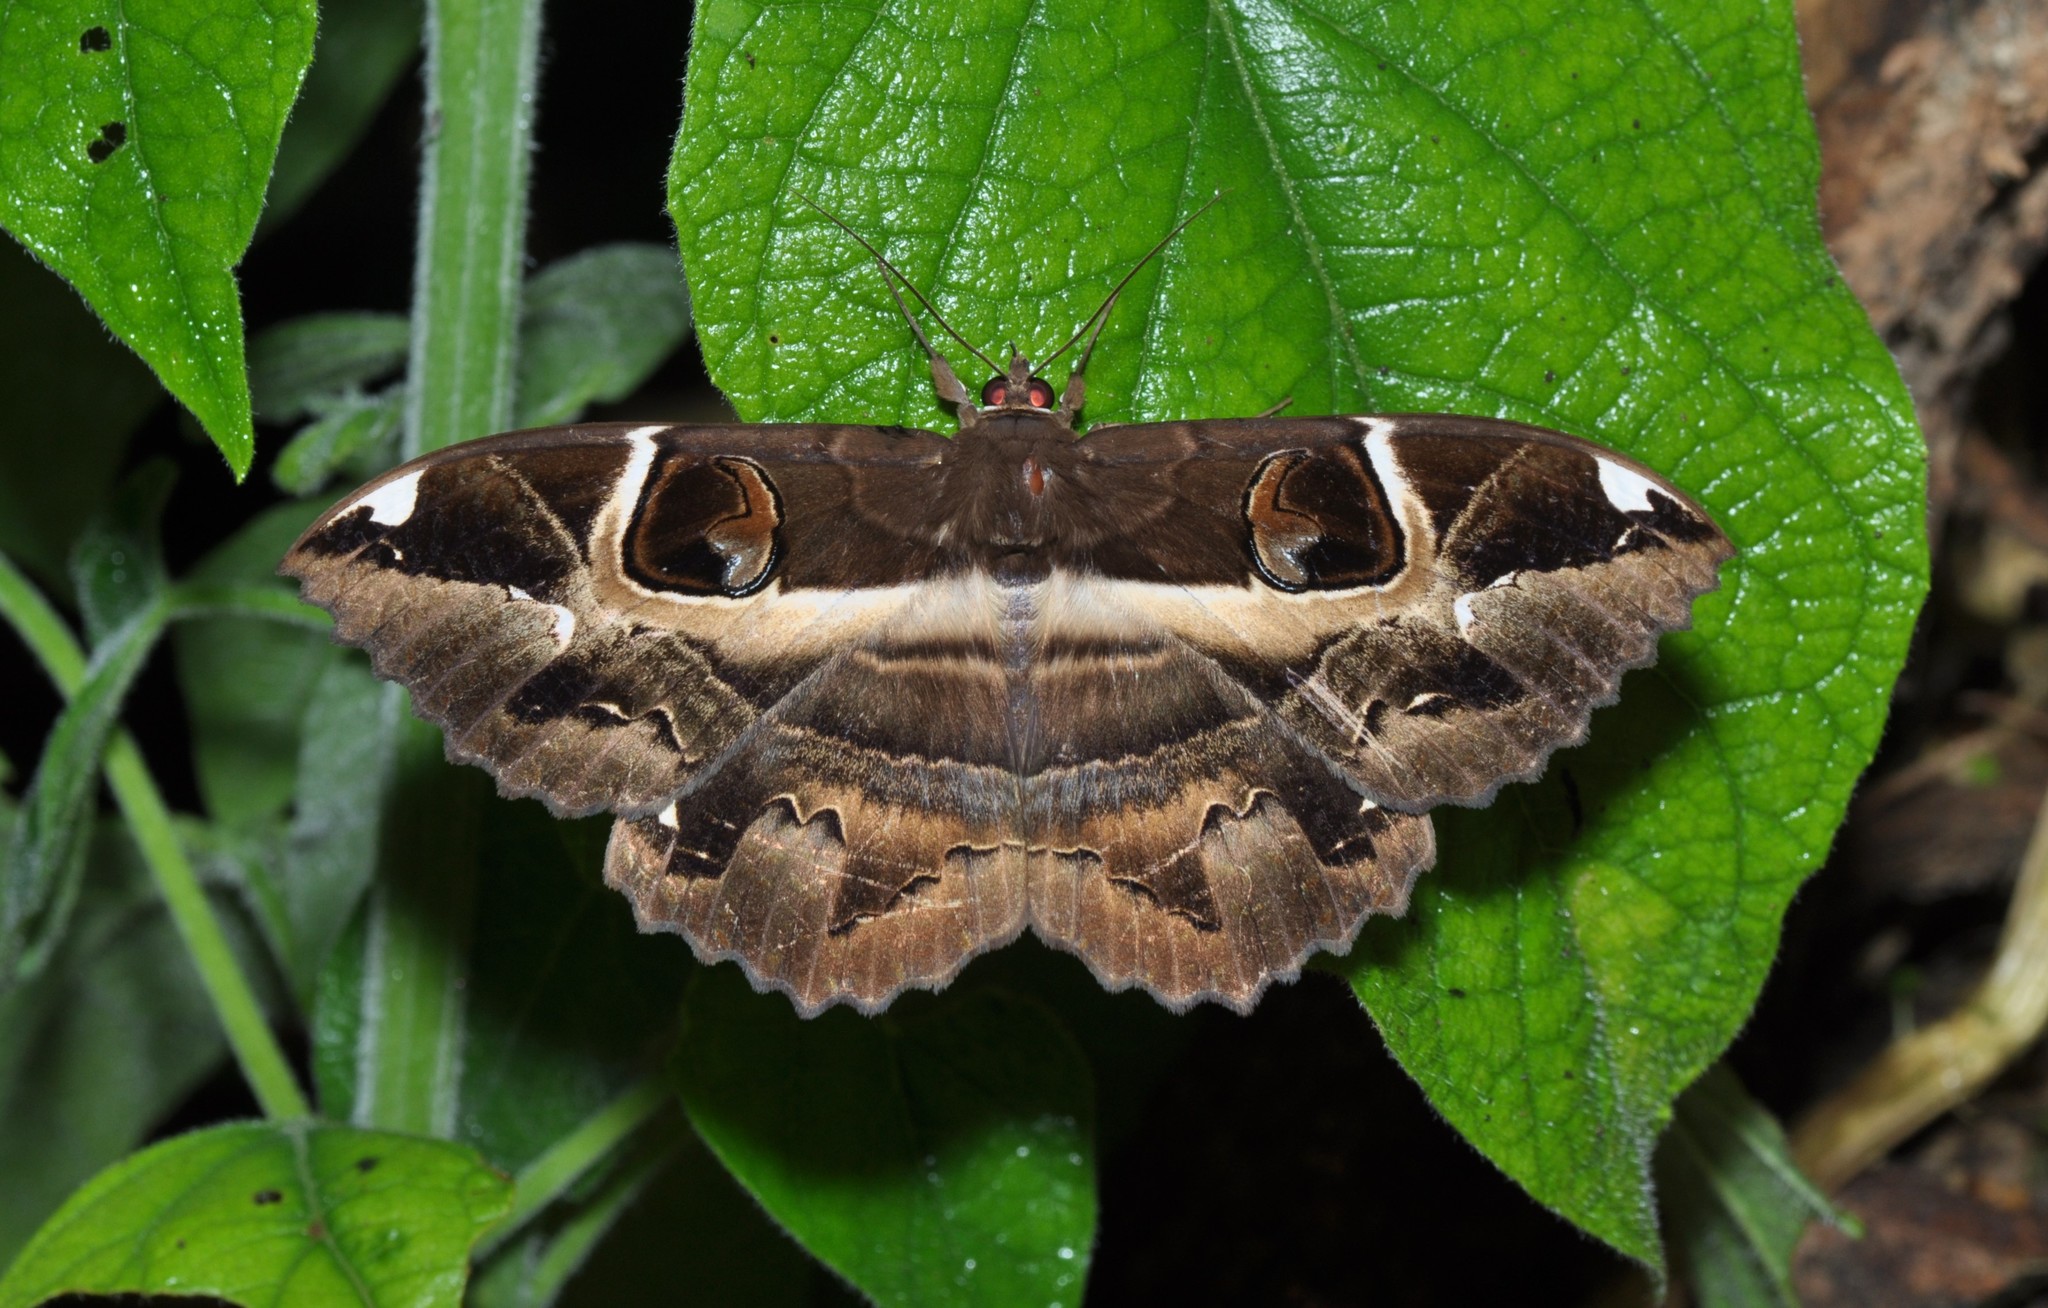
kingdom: Animalia
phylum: Arthropoda
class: Insecta
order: Lepidoptera
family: Erebidae
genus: Erebus
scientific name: Erebus ephesperis
